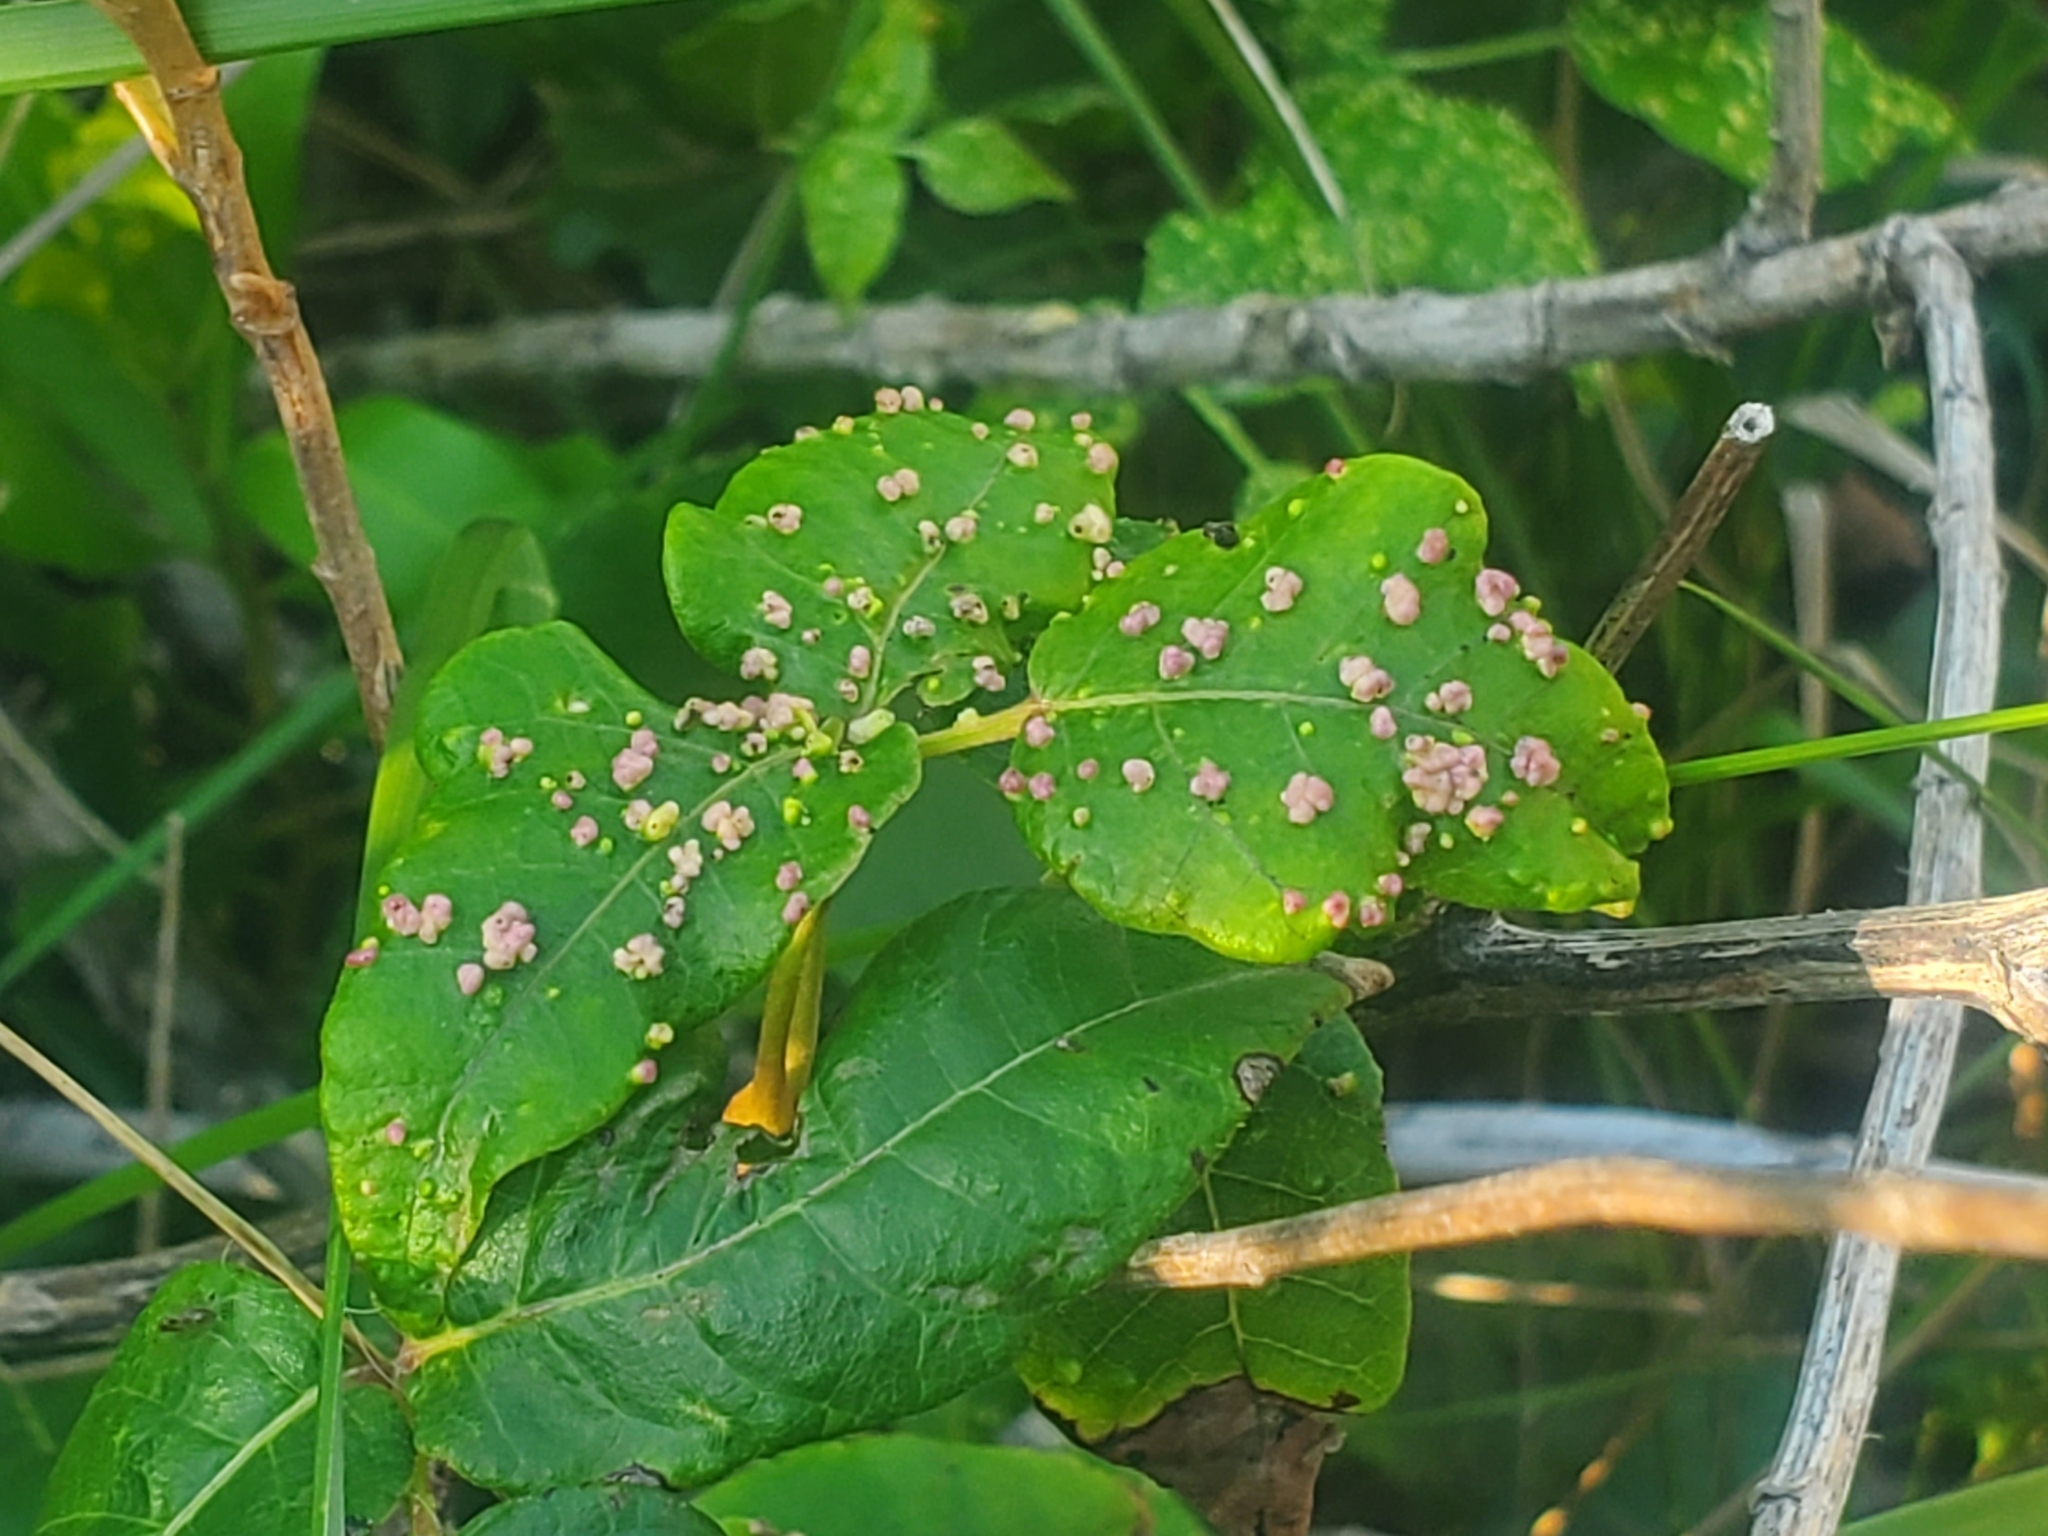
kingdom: Animalia
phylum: Arthropoda
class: Arachnida
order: Trombidiformes
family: Eriophyidae
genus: Aculops
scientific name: Aculops
